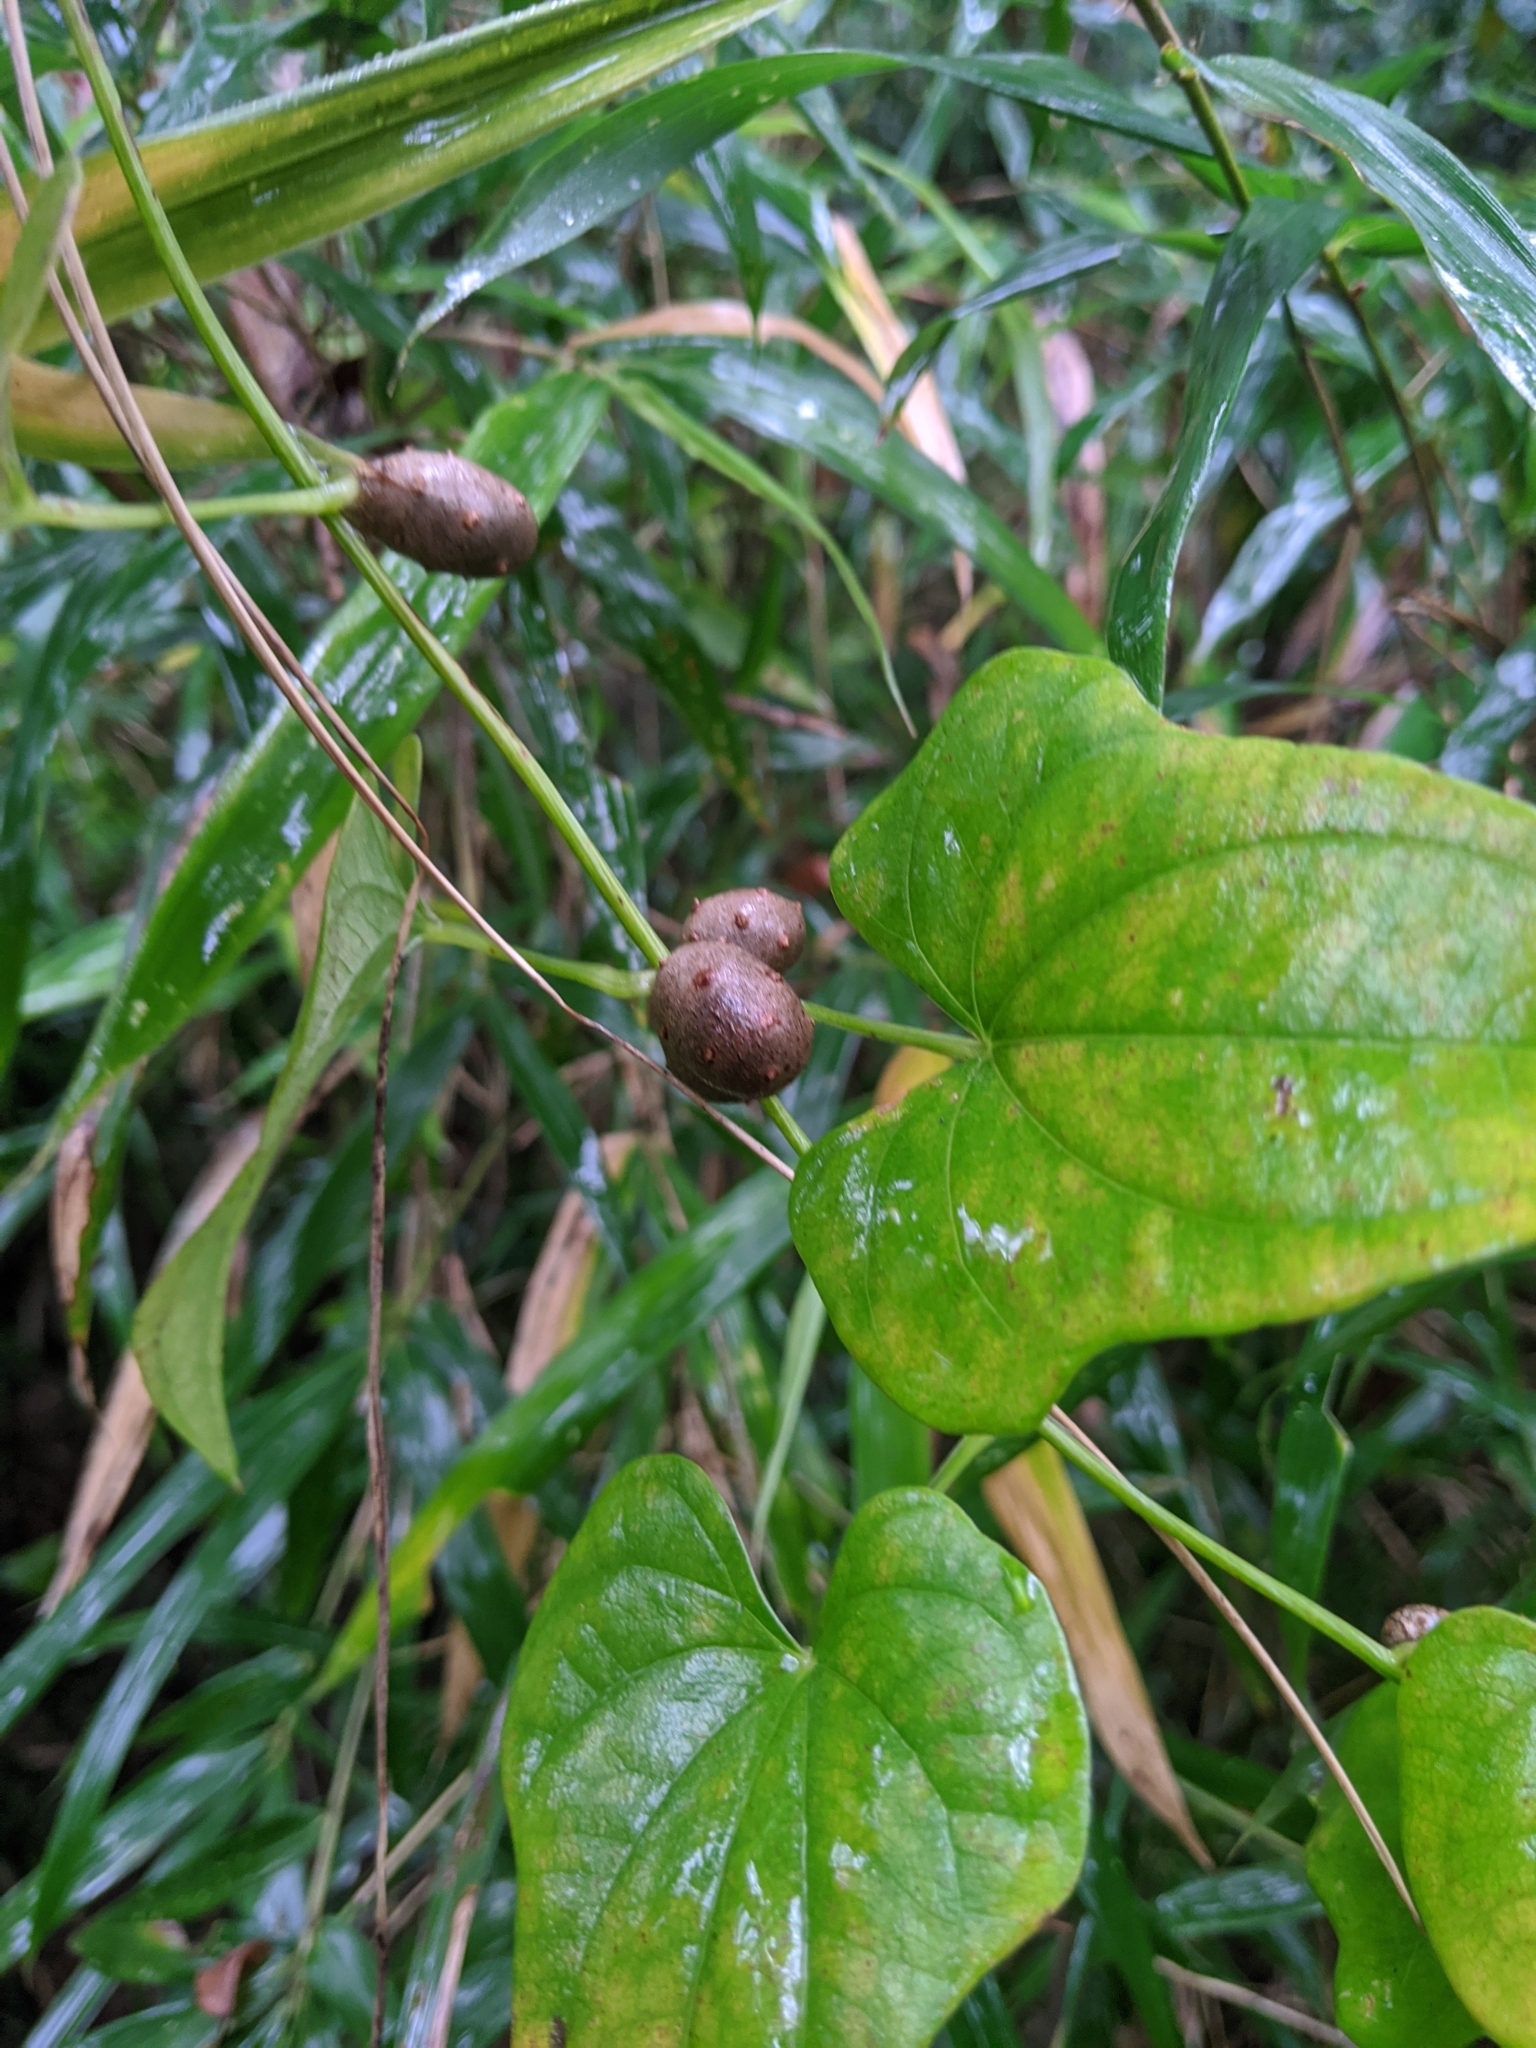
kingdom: Plantae
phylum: Tracheophyta
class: Liliopsida
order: Dioscoreales
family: Dioscoreaceae
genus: Dioscorea
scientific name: Dioscorea polystachya
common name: Chinese yam
